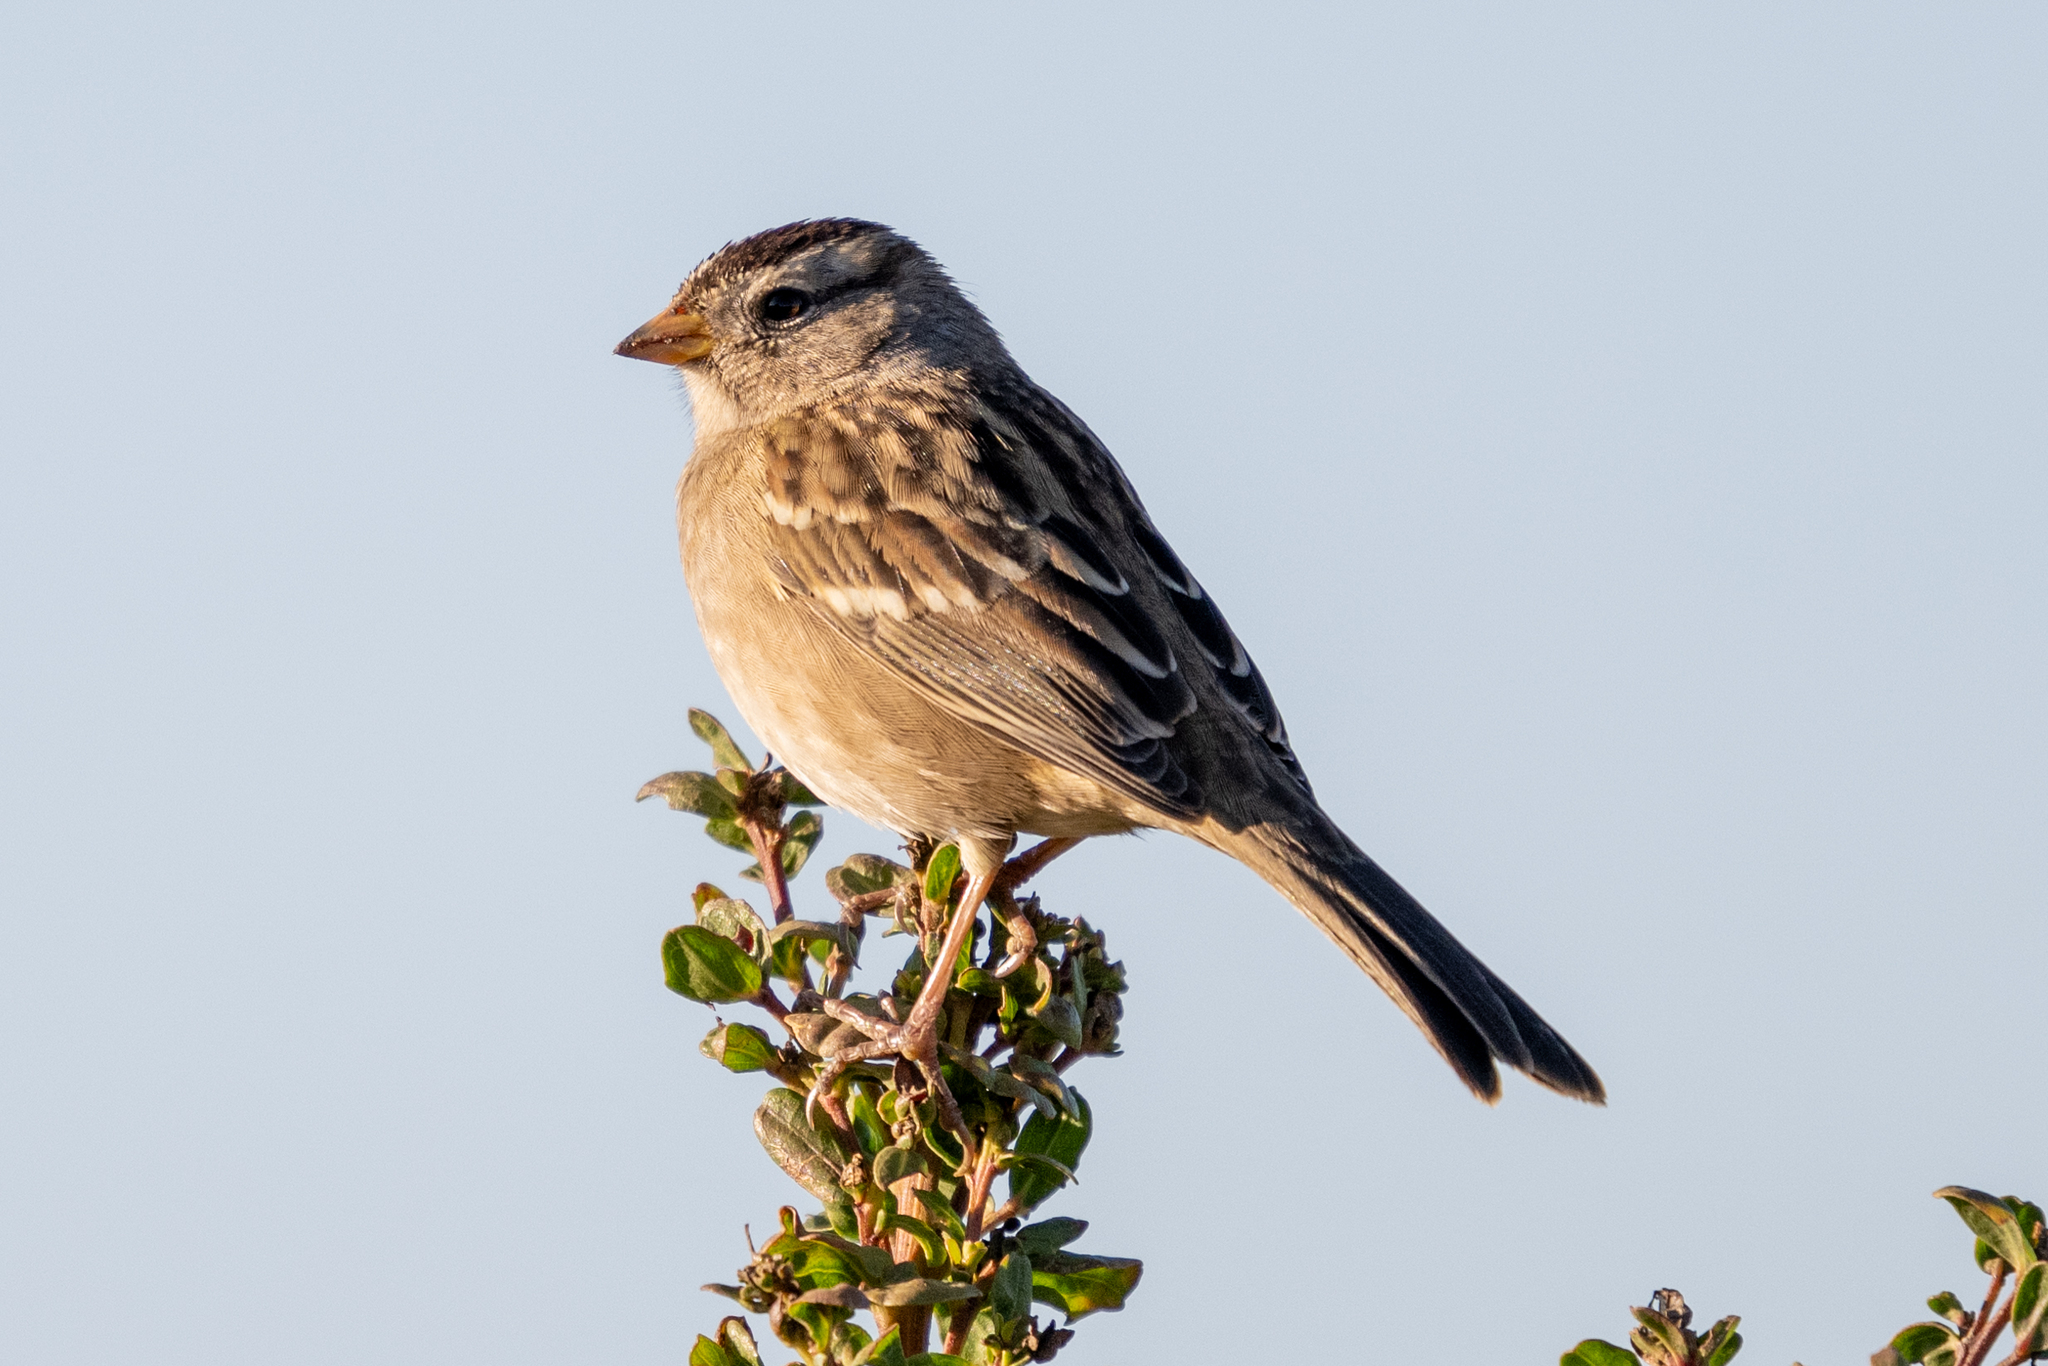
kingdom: Animalia
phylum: Chordata
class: Aves
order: Passeriformes
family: Passerellidae
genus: Zonotrichia
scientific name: Zonotrichia leucophrys
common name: White-crowned sparrow
